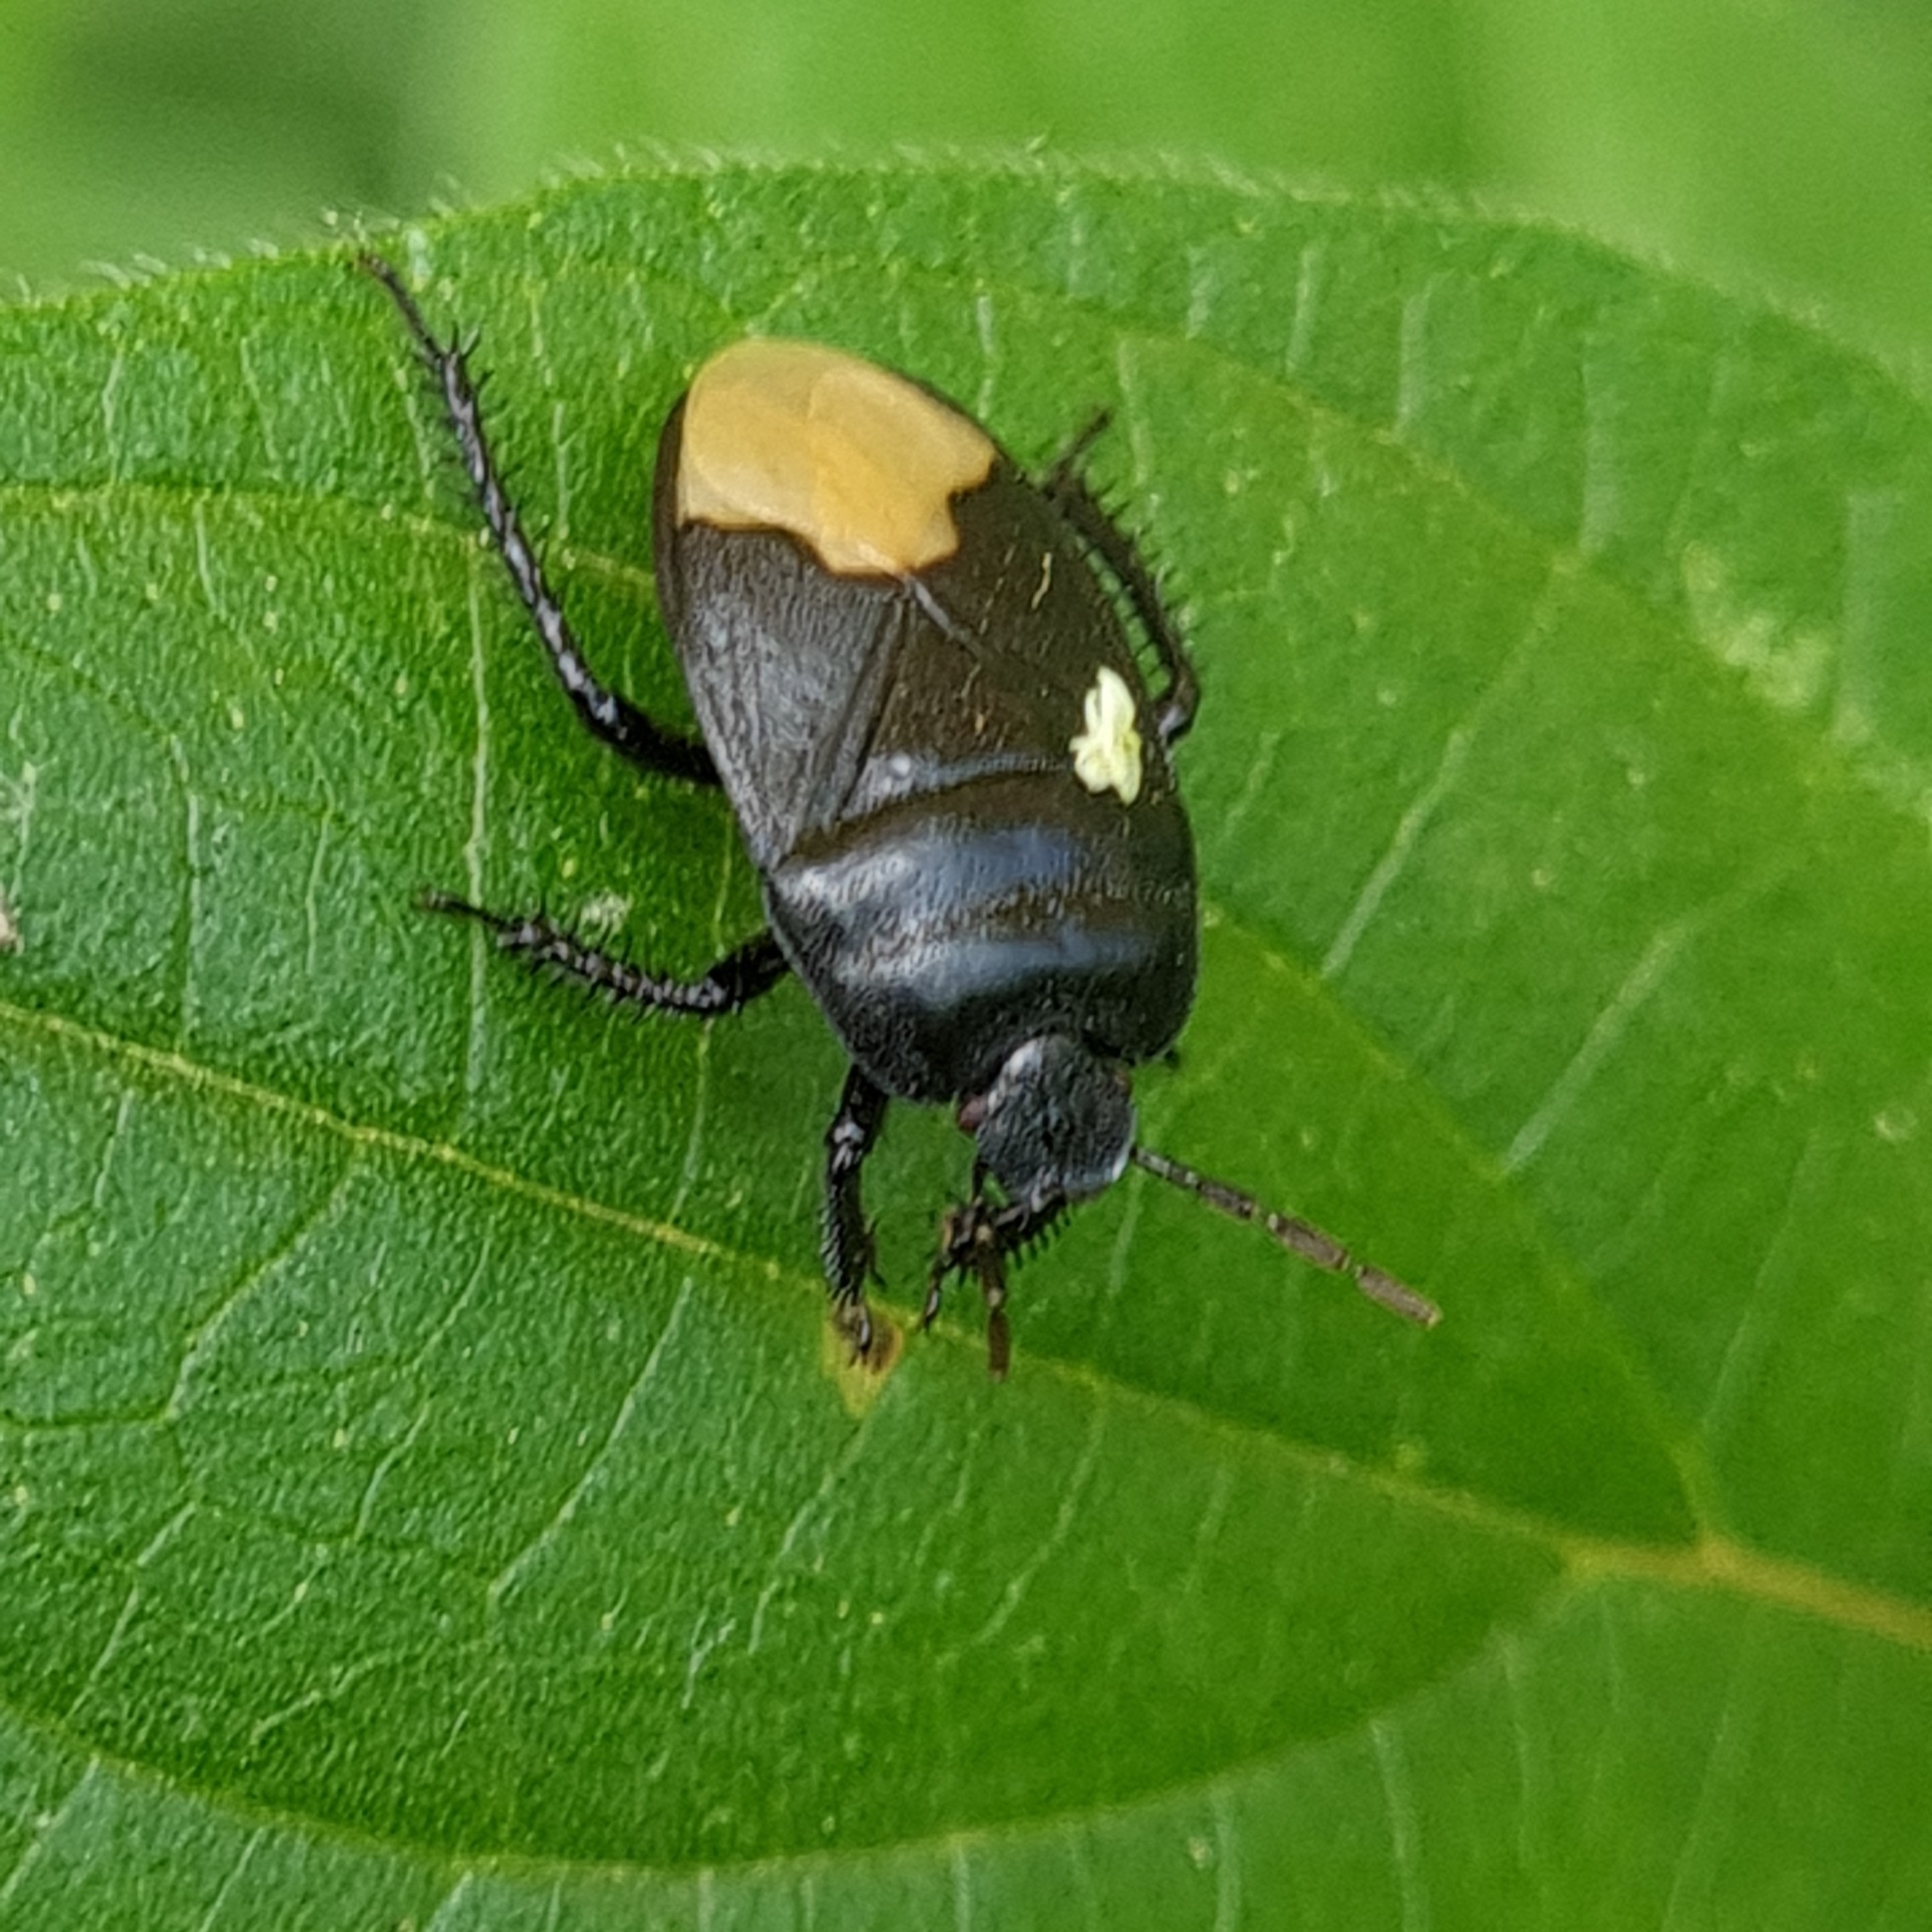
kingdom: Animalia
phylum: Arthropoda
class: Insecta
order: Hemiptera
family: Cydnidae
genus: Cydnus
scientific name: Cydnus aterrimus
